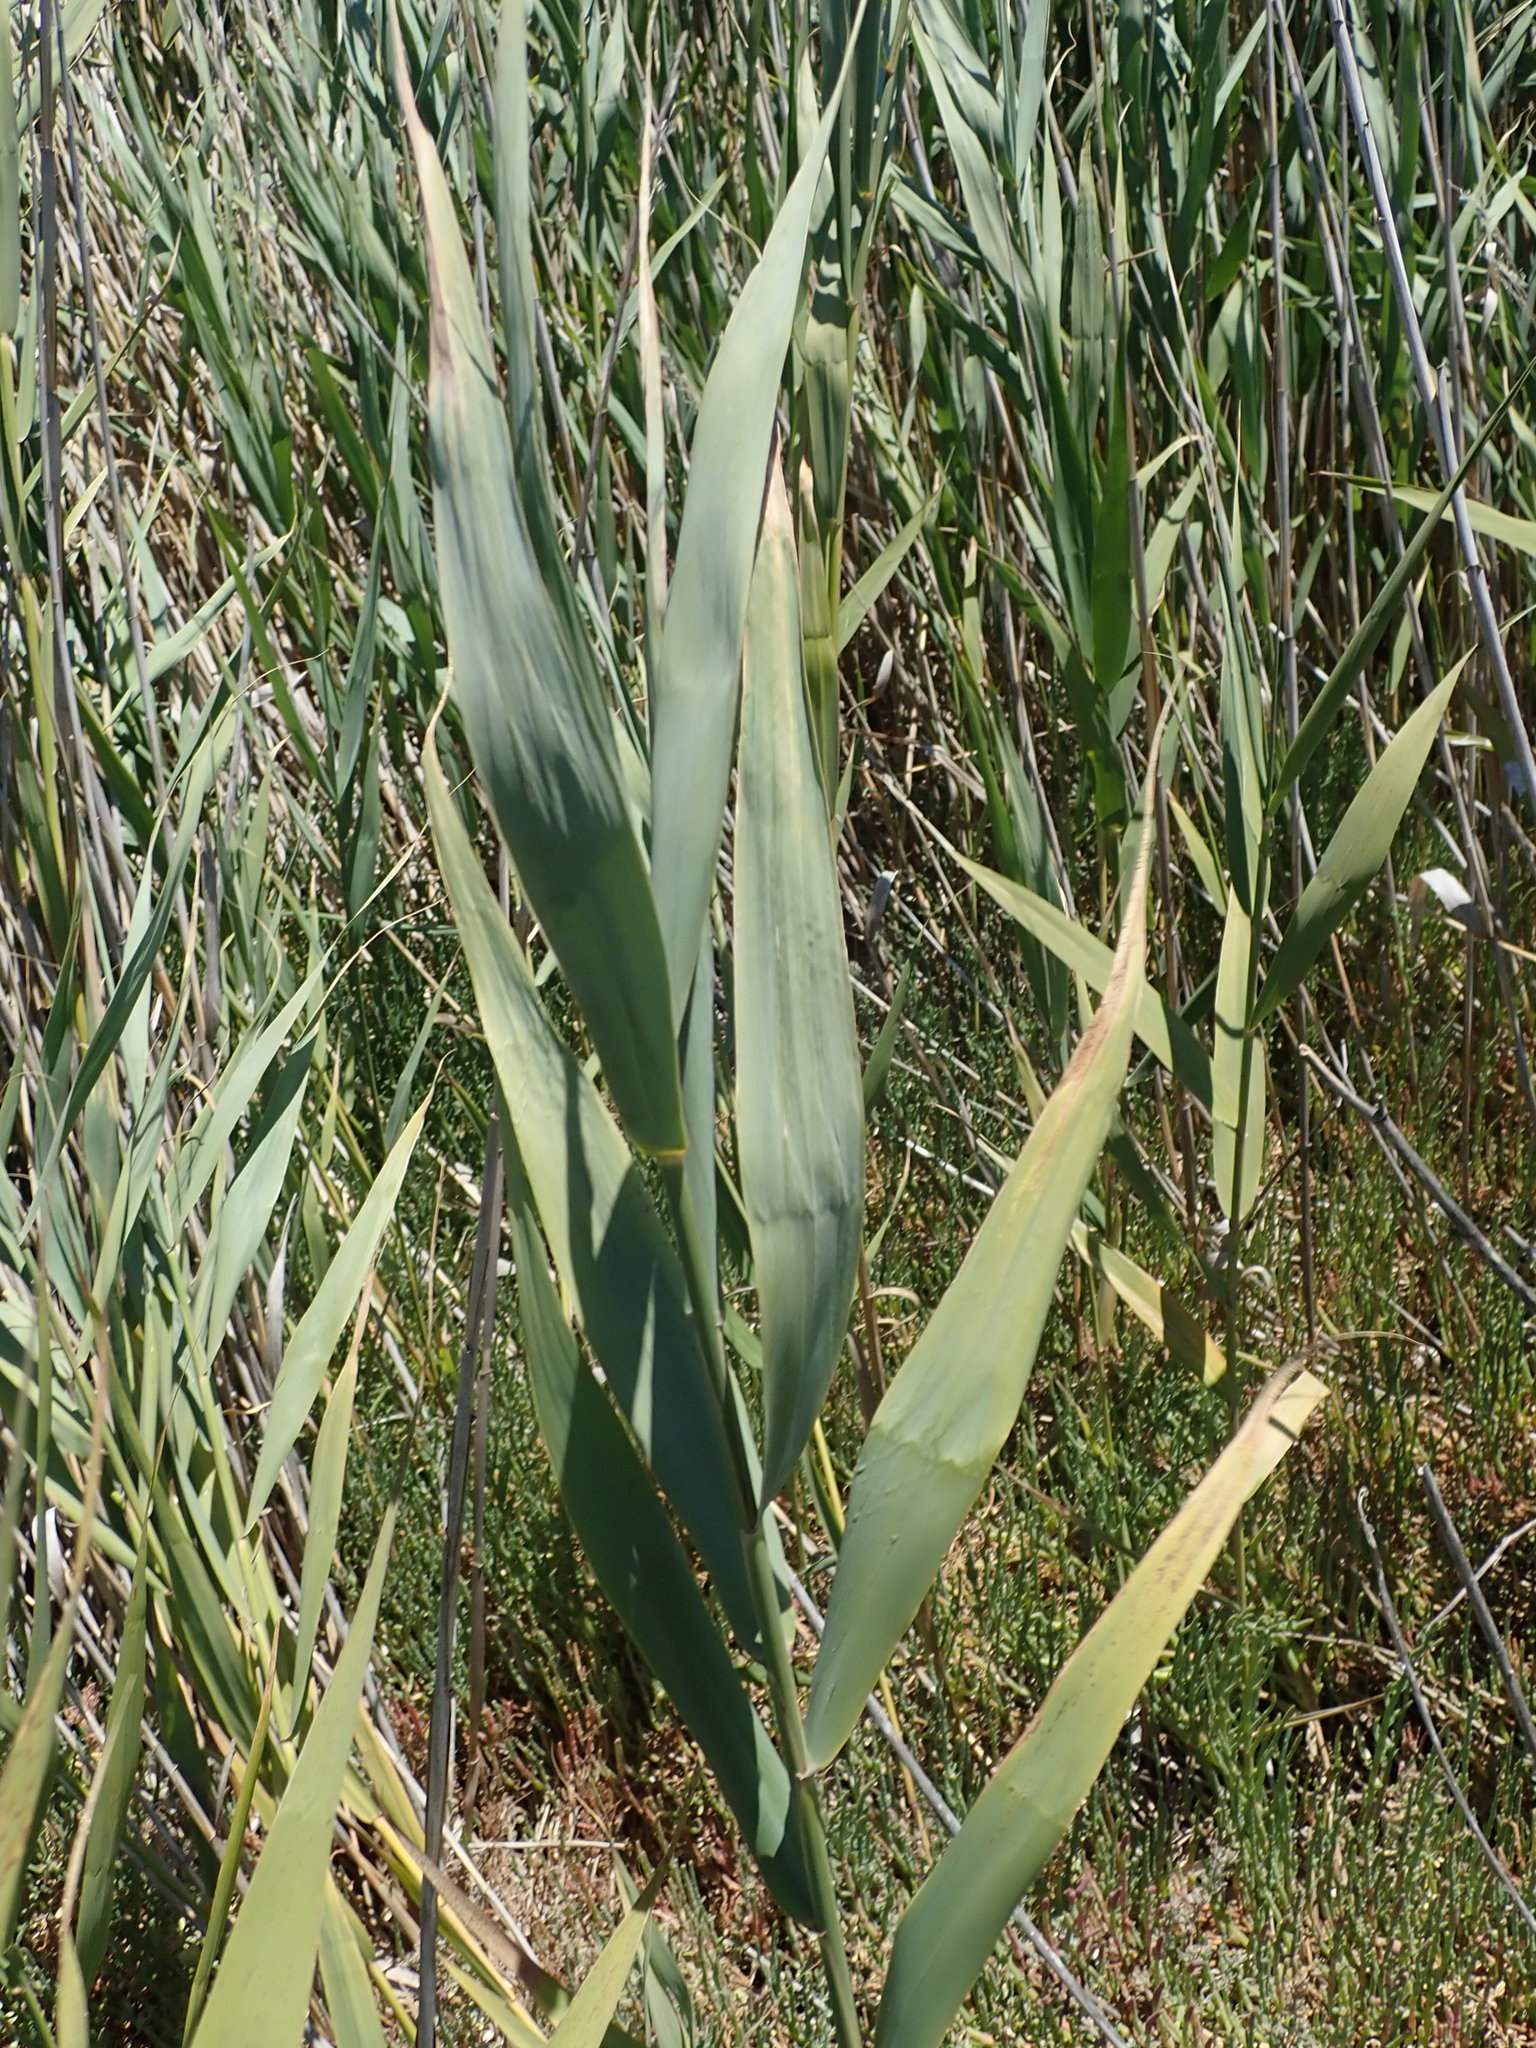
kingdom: Plantae
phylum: Tracheophyta
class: Liliopsida
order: Poales
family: Poaceae
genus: Phragmites
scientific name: Phragmites australis
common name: Common reed
